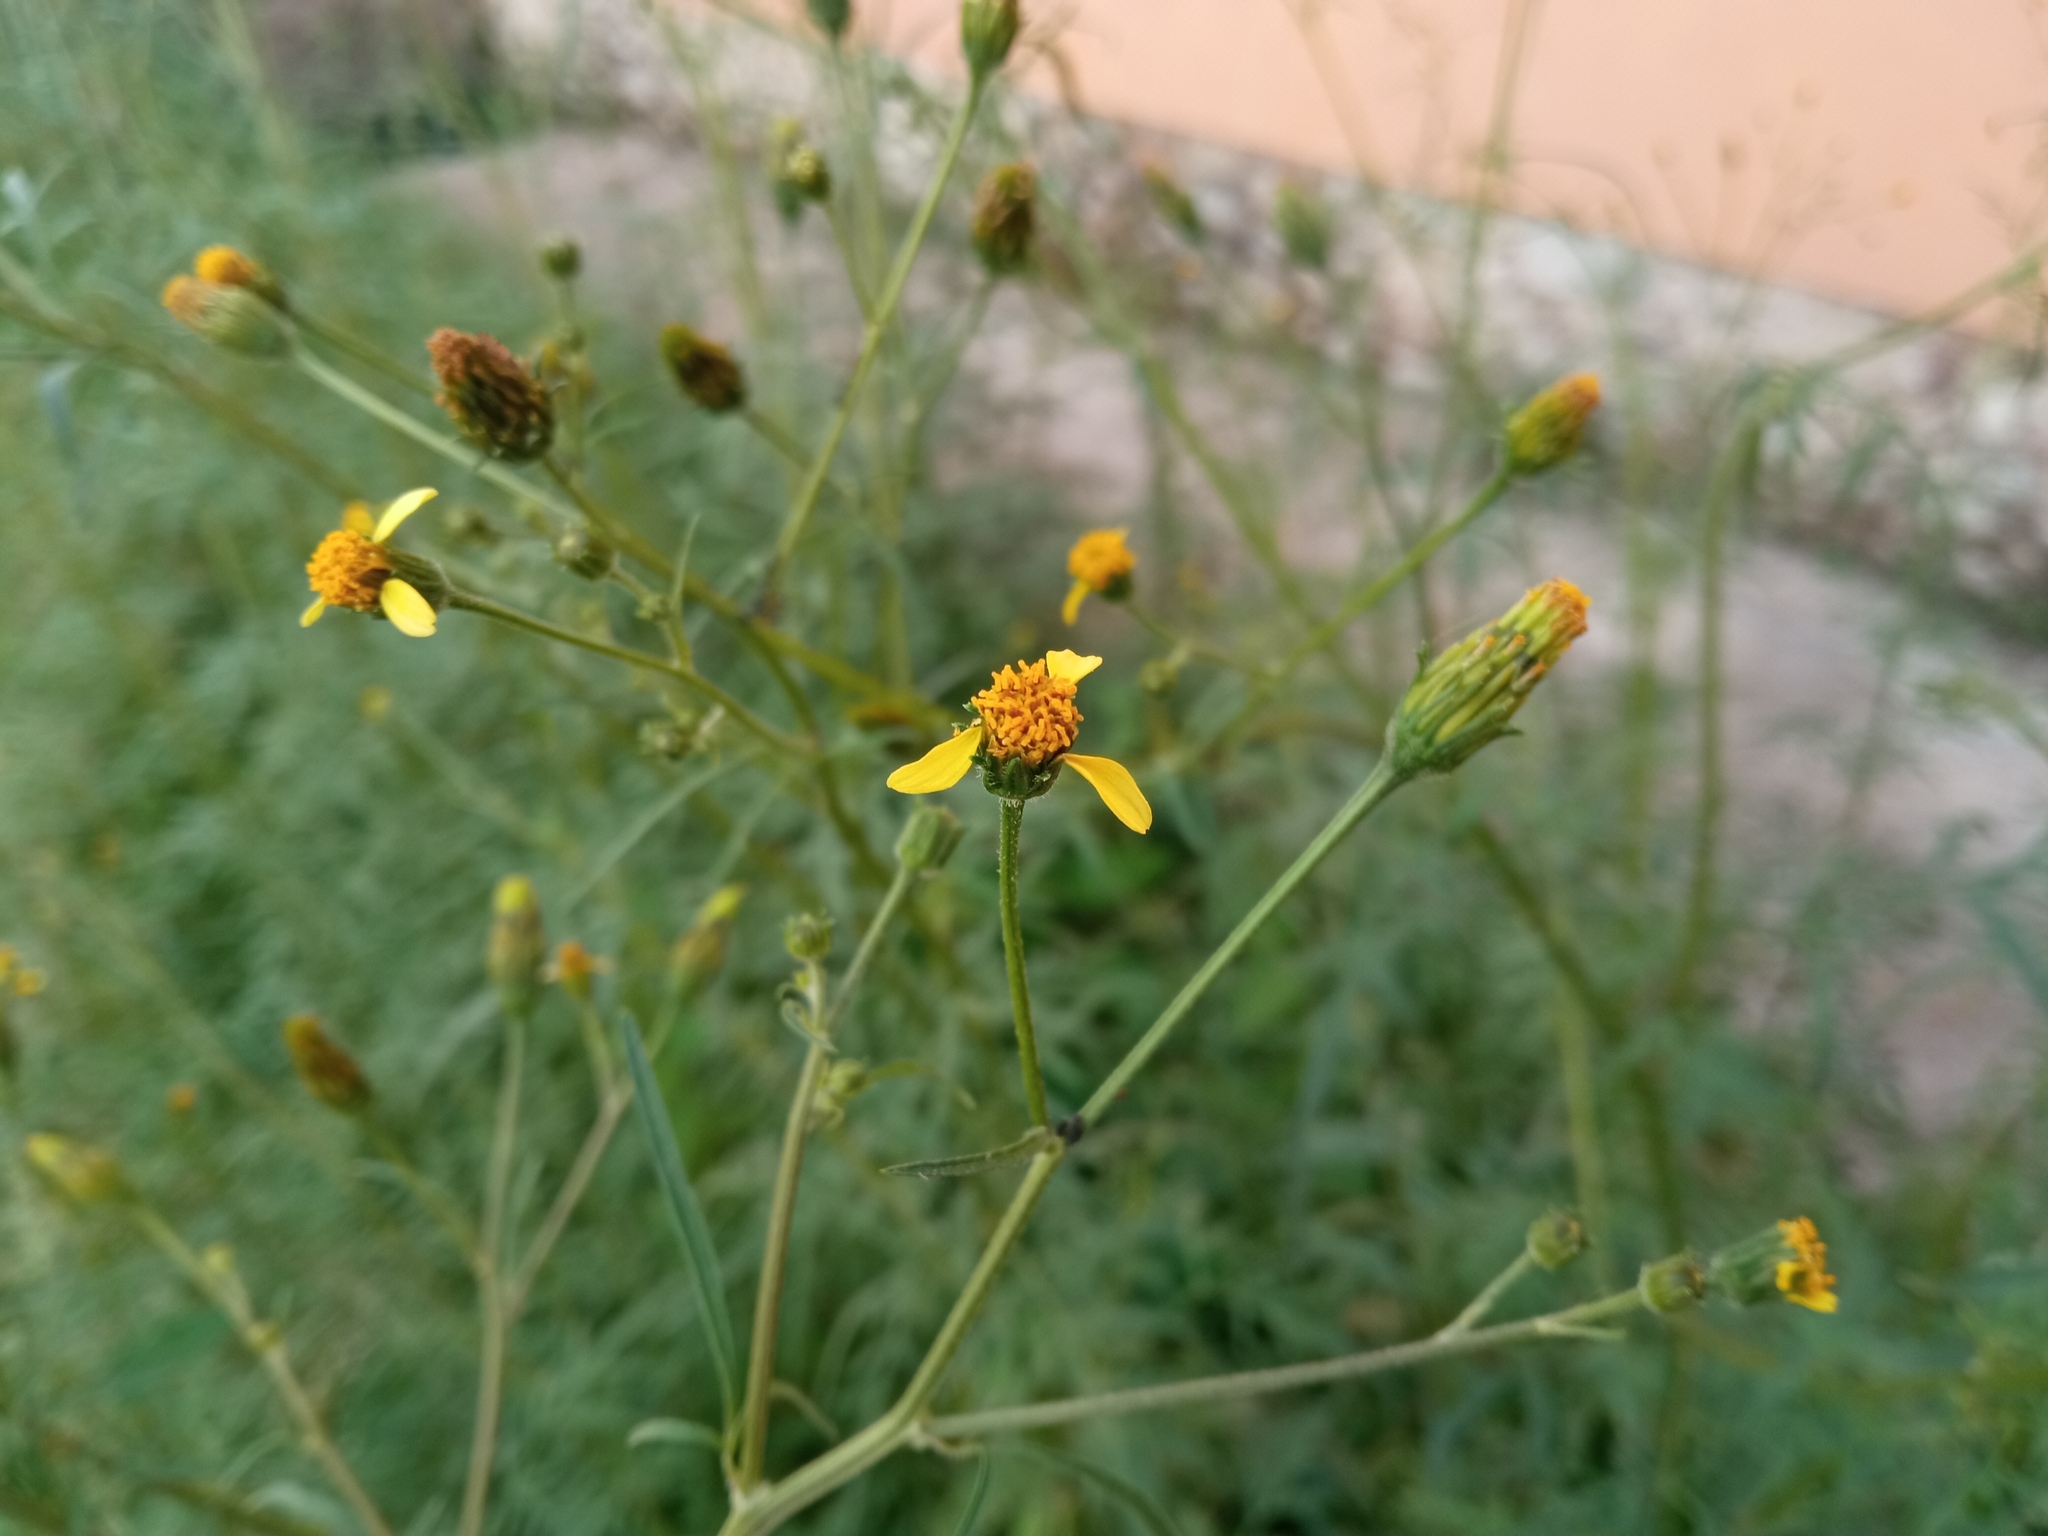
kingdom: Plantae
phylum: Tracheophyta
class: Magnoliopsida
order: Asterales
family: Asteraceae
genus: Bidens
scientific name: Bidens subalternans
